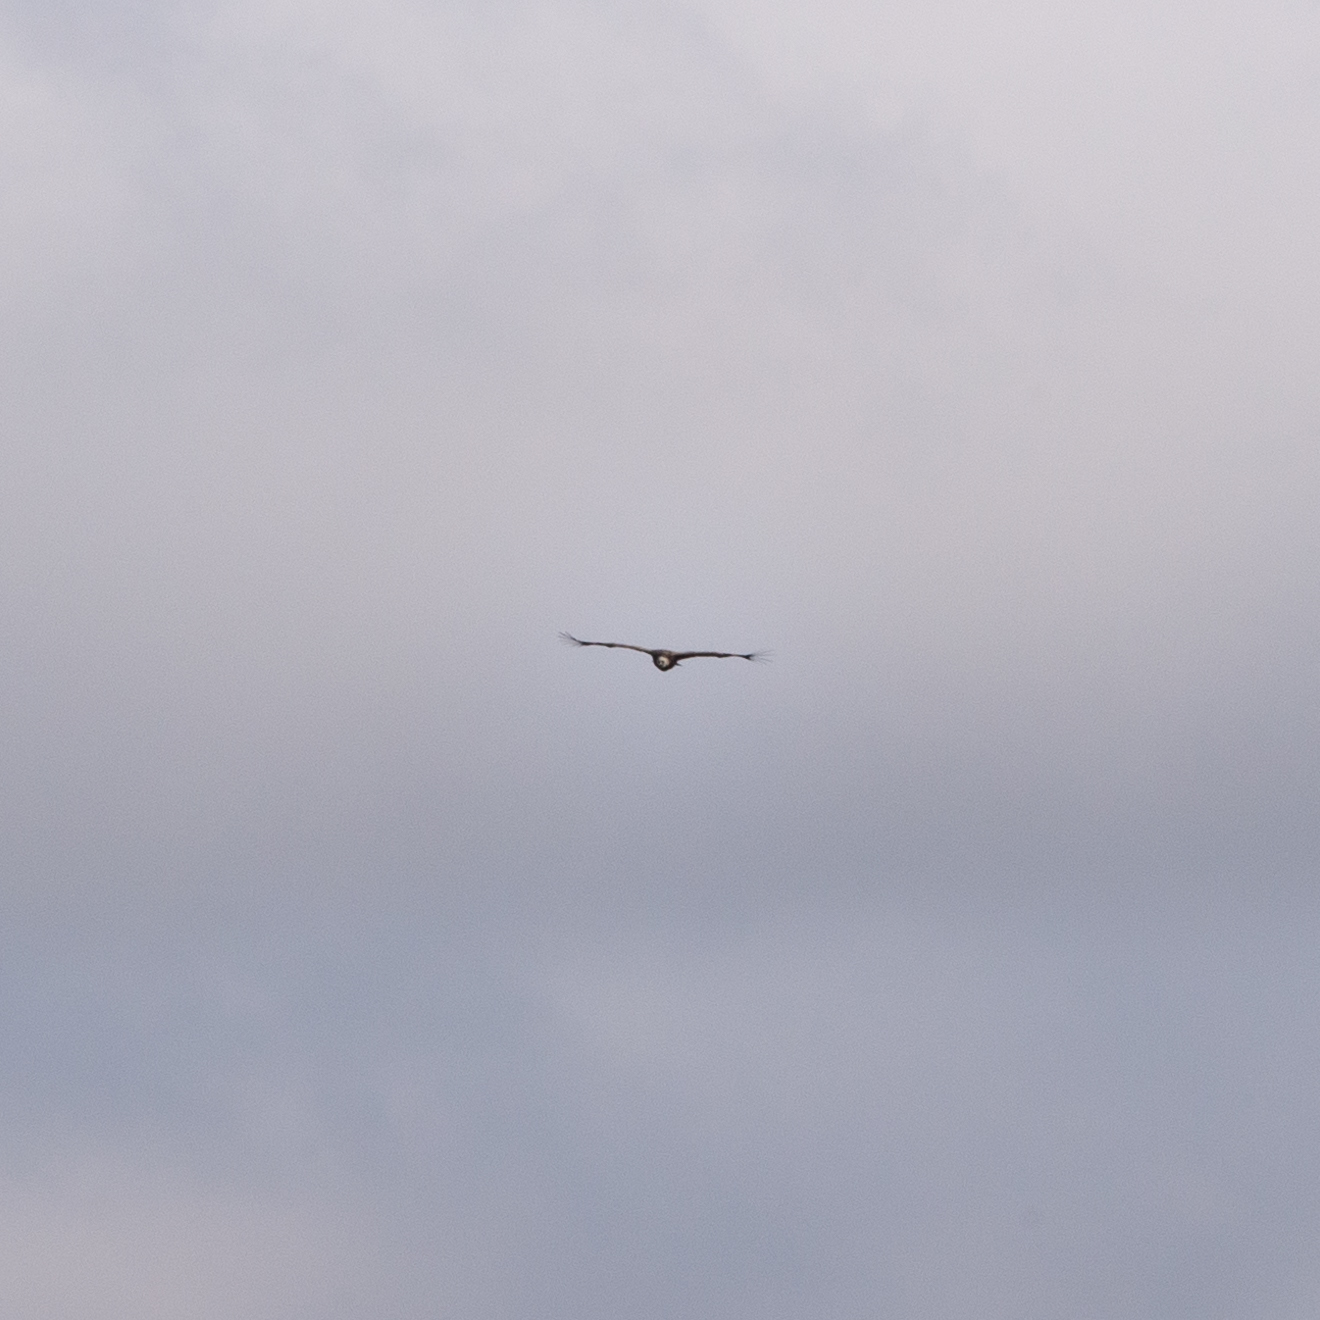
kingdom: Animalia
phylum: Chordata
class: Aves
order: Accipitriformes
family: Accipitridae
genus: Gyps
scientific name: Gyps fulvus
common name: Griffon vulture
